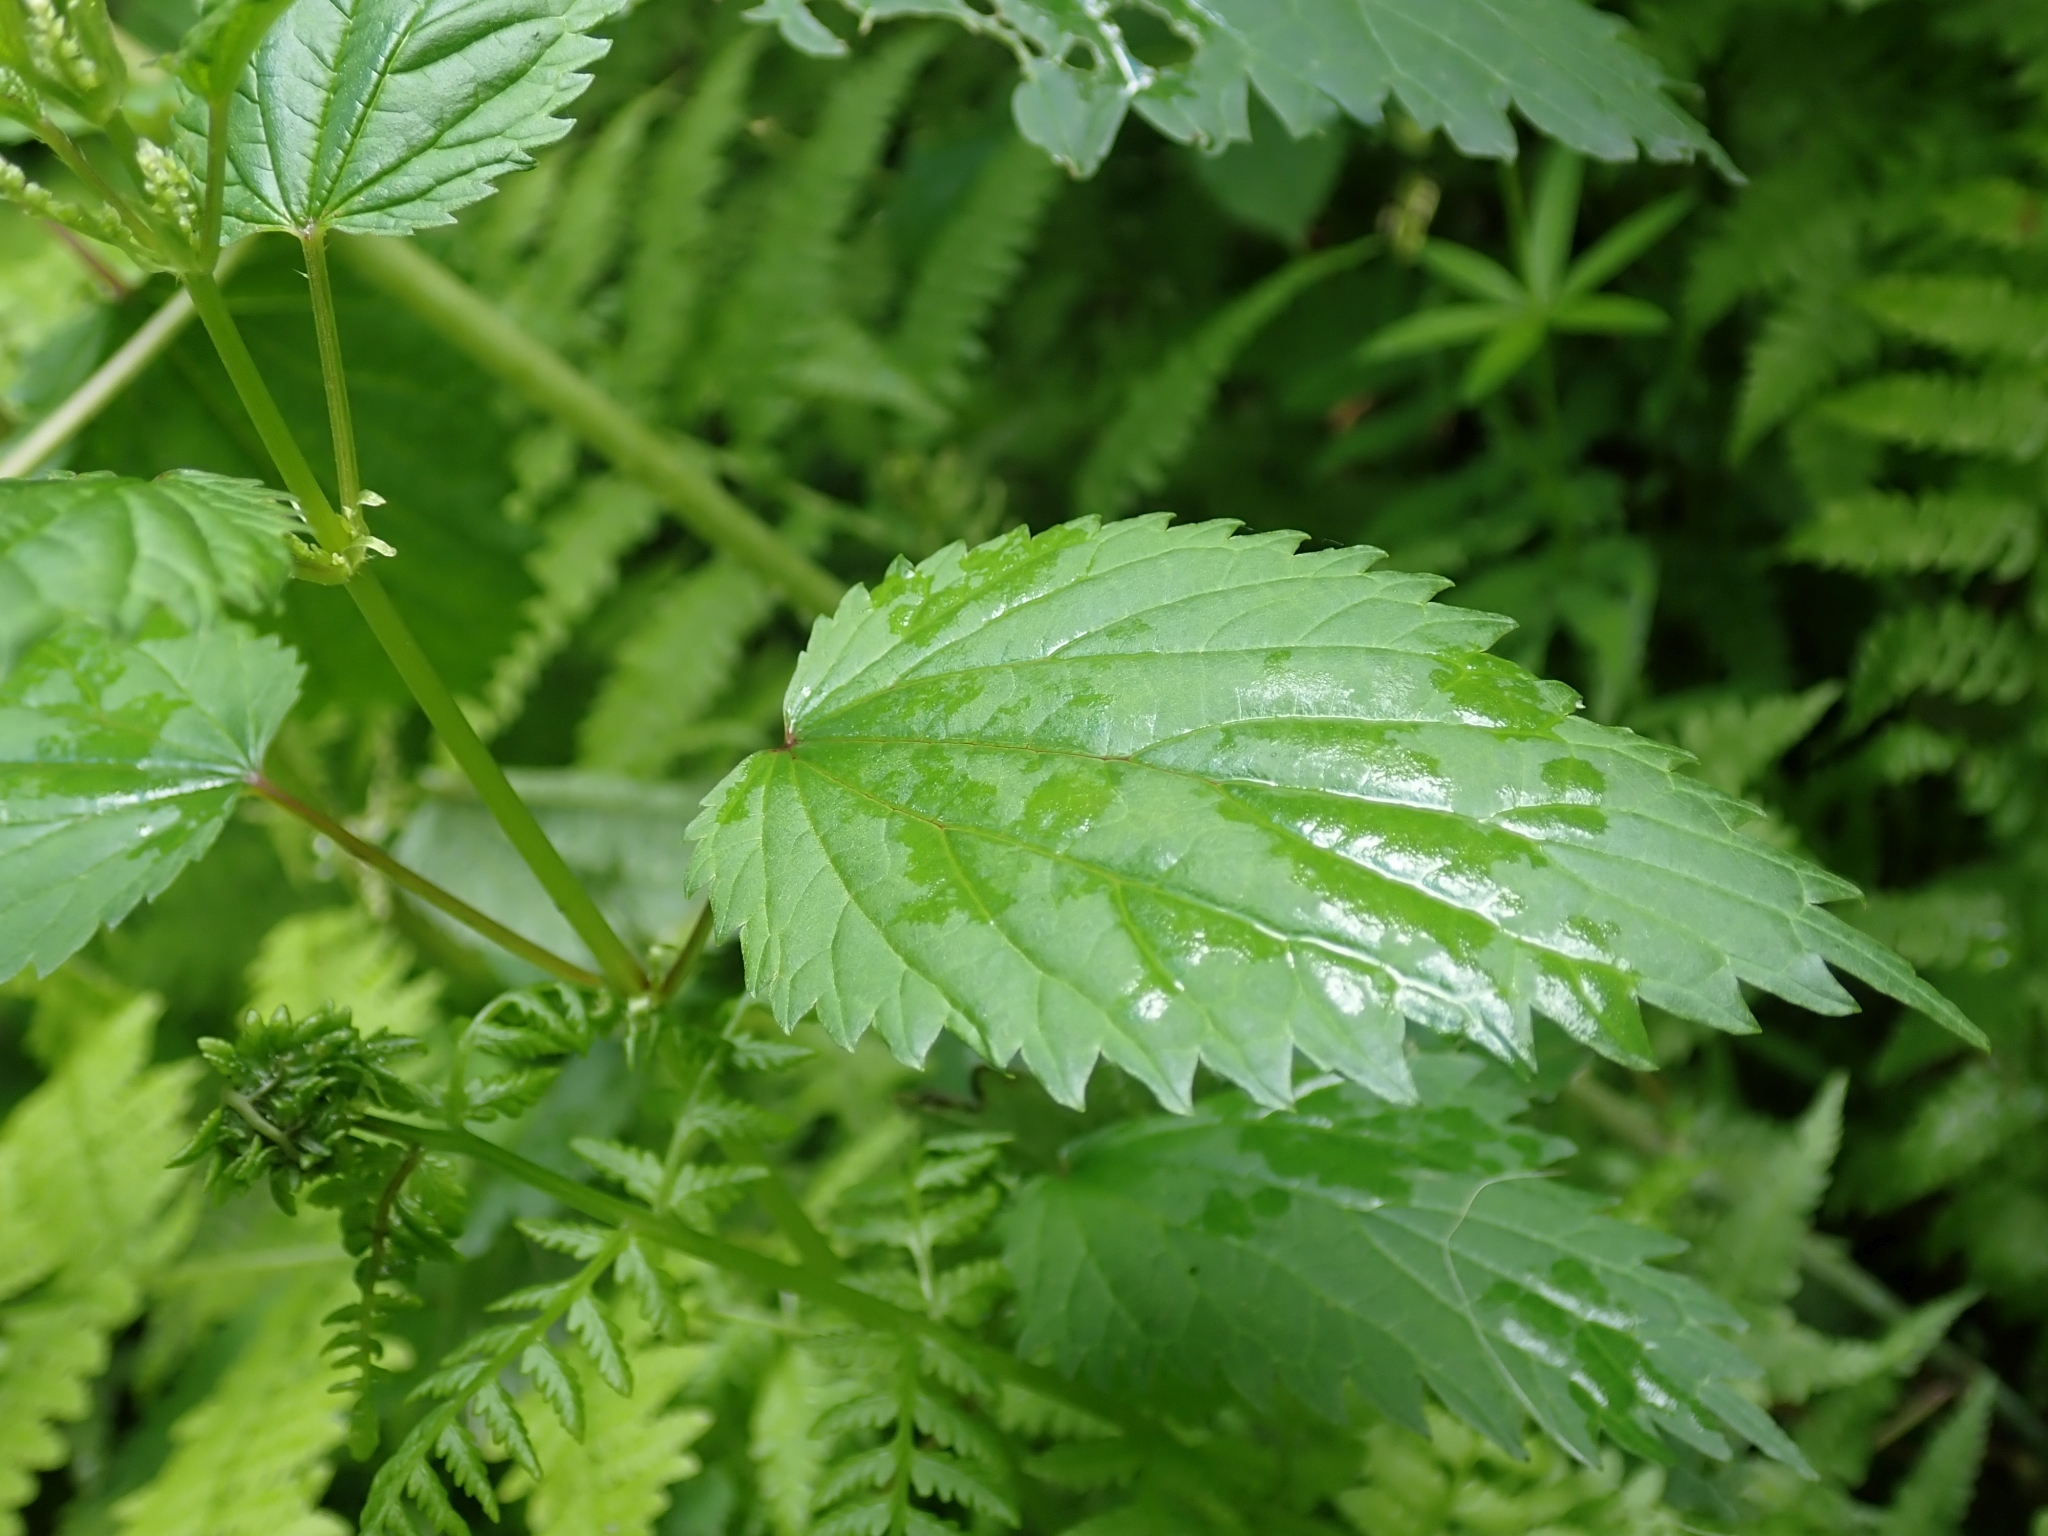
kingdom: Plantae
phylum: Tracheophyta
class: Magnoliopsida
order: Rosales
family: Urticaceae
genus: Urtica
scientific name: Urtica dioica
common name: Common nettle
